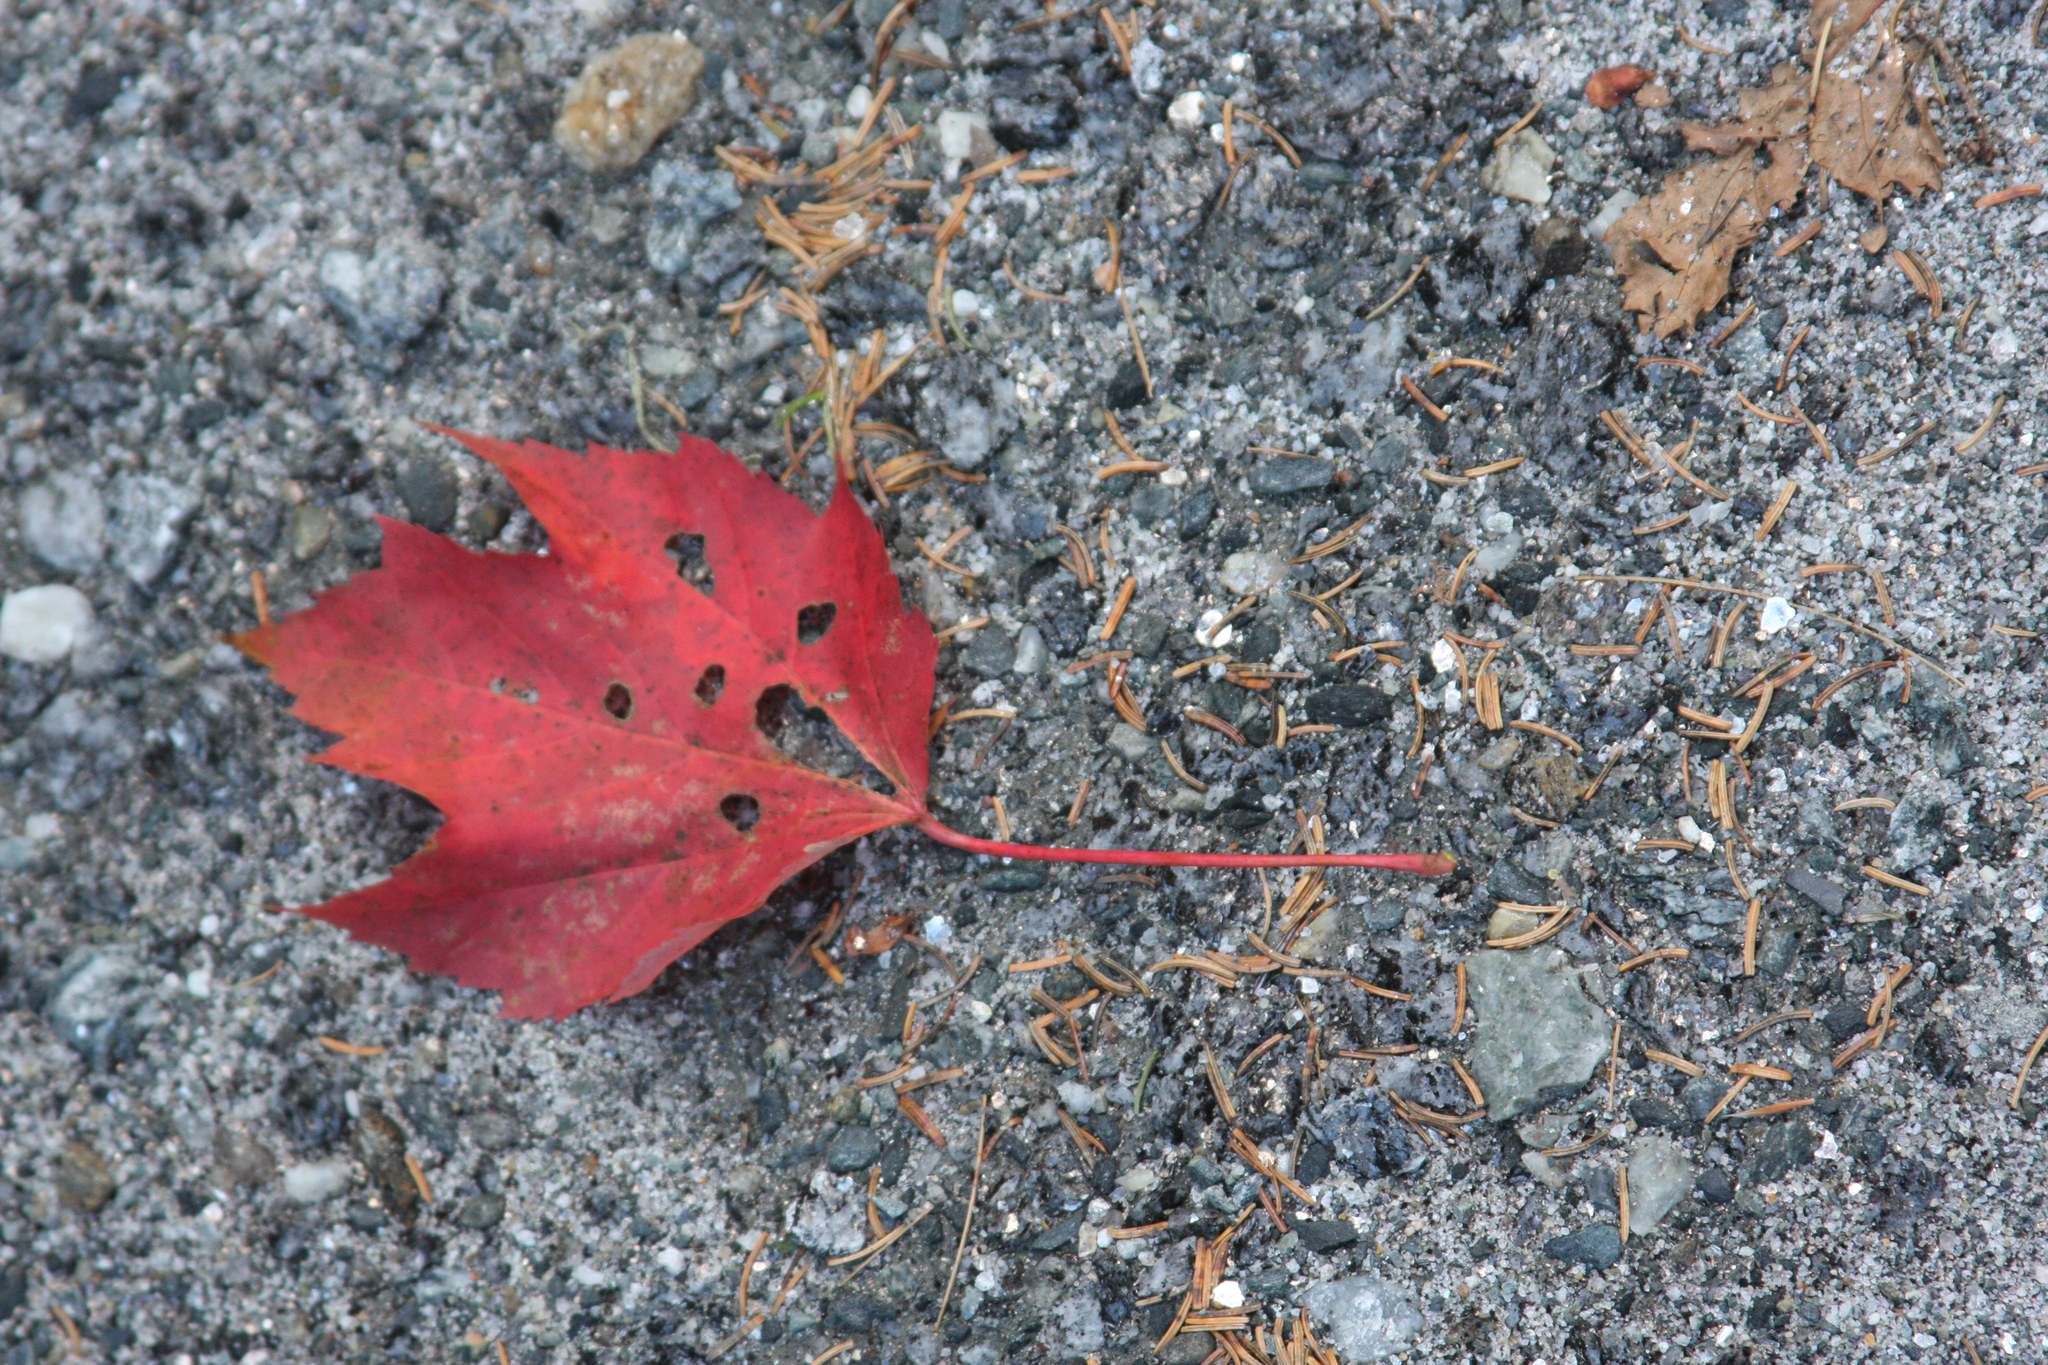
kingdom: Plantae
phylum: Tracheophyta
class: Magnoliopsida
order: Sapindales
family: Sapindaceae
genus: Acer
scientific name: Acer rubrum
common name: Red maple
